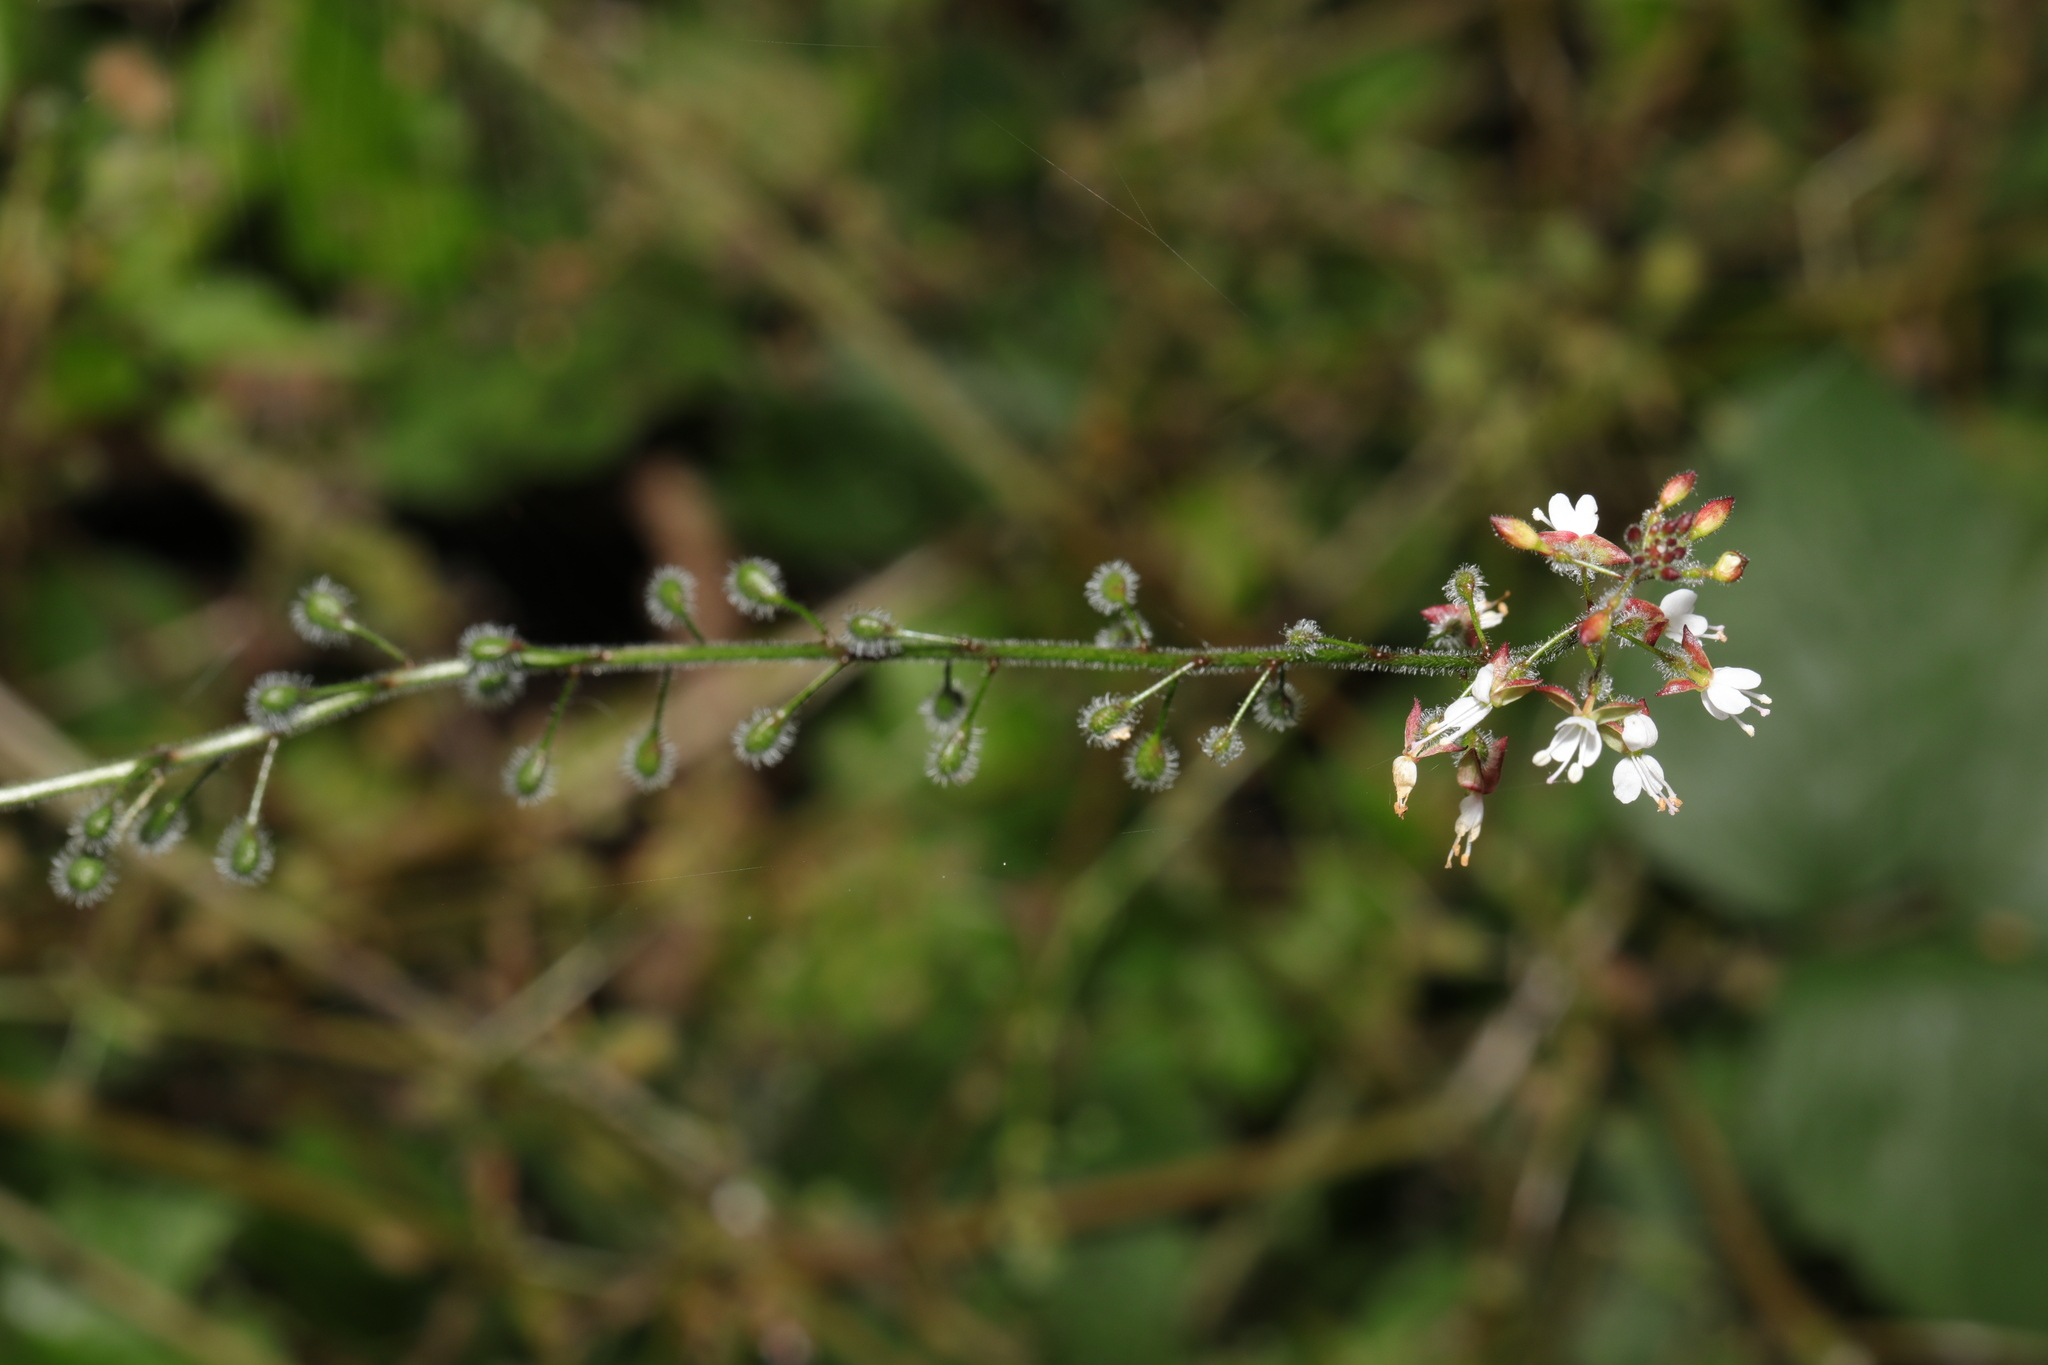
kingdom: Plantae
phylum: Tracheophyta
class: Magnoliopsida
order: Myrtales
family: Onagraceae
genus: Circaea
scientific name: Circaea lutetiana
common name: Enchanter's-nightshade
